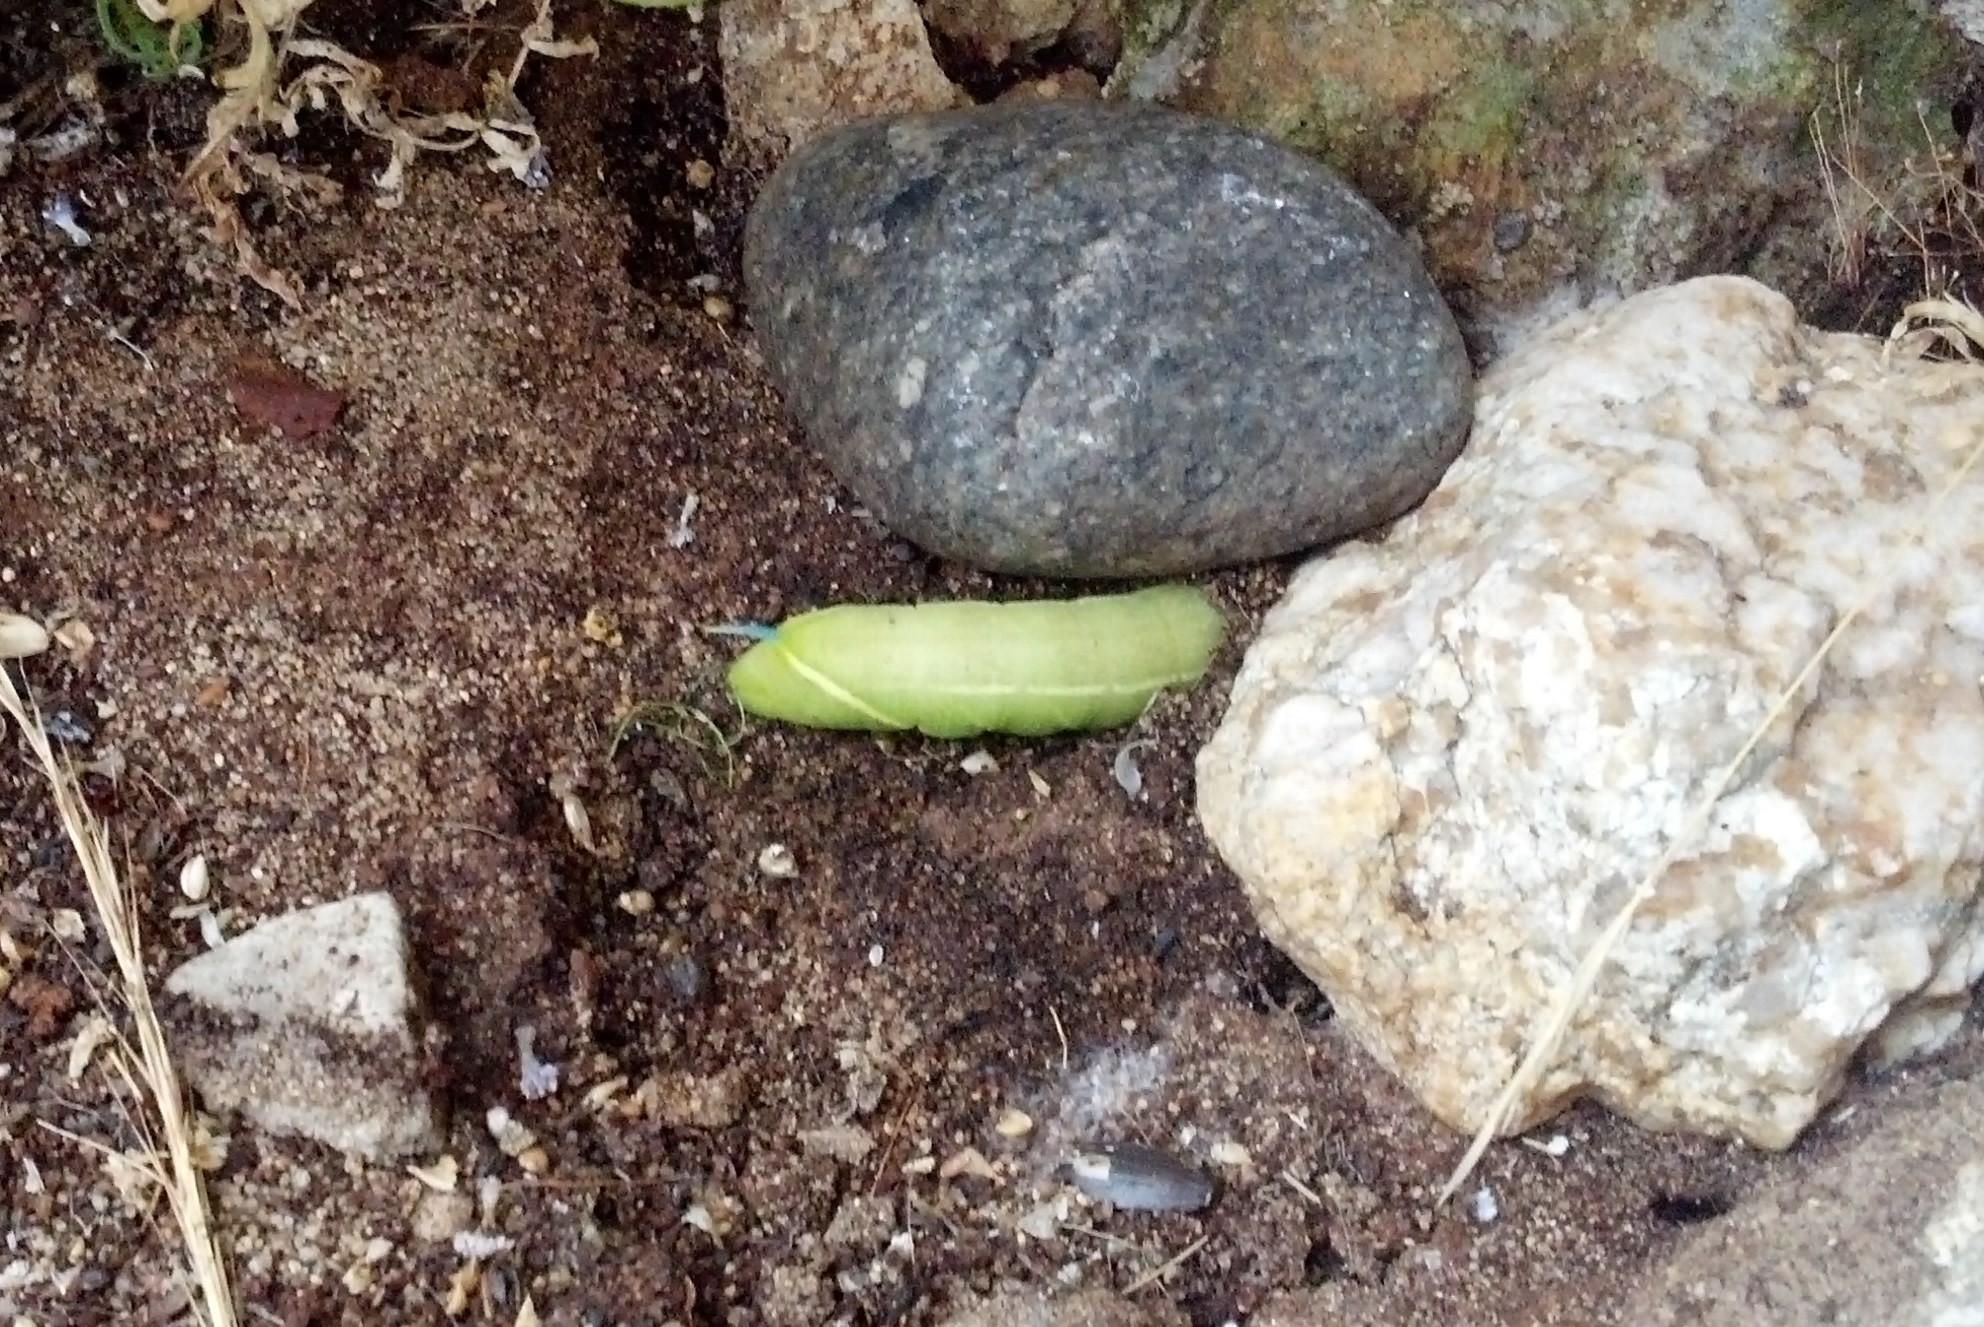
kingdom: Animalia
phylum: Arthropoda
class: Insecta
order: Lepidoptera
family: Sphingidae
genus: Smerinthus
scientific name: Smerinthus cerisyi
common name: Cerisy's sphinx moth
